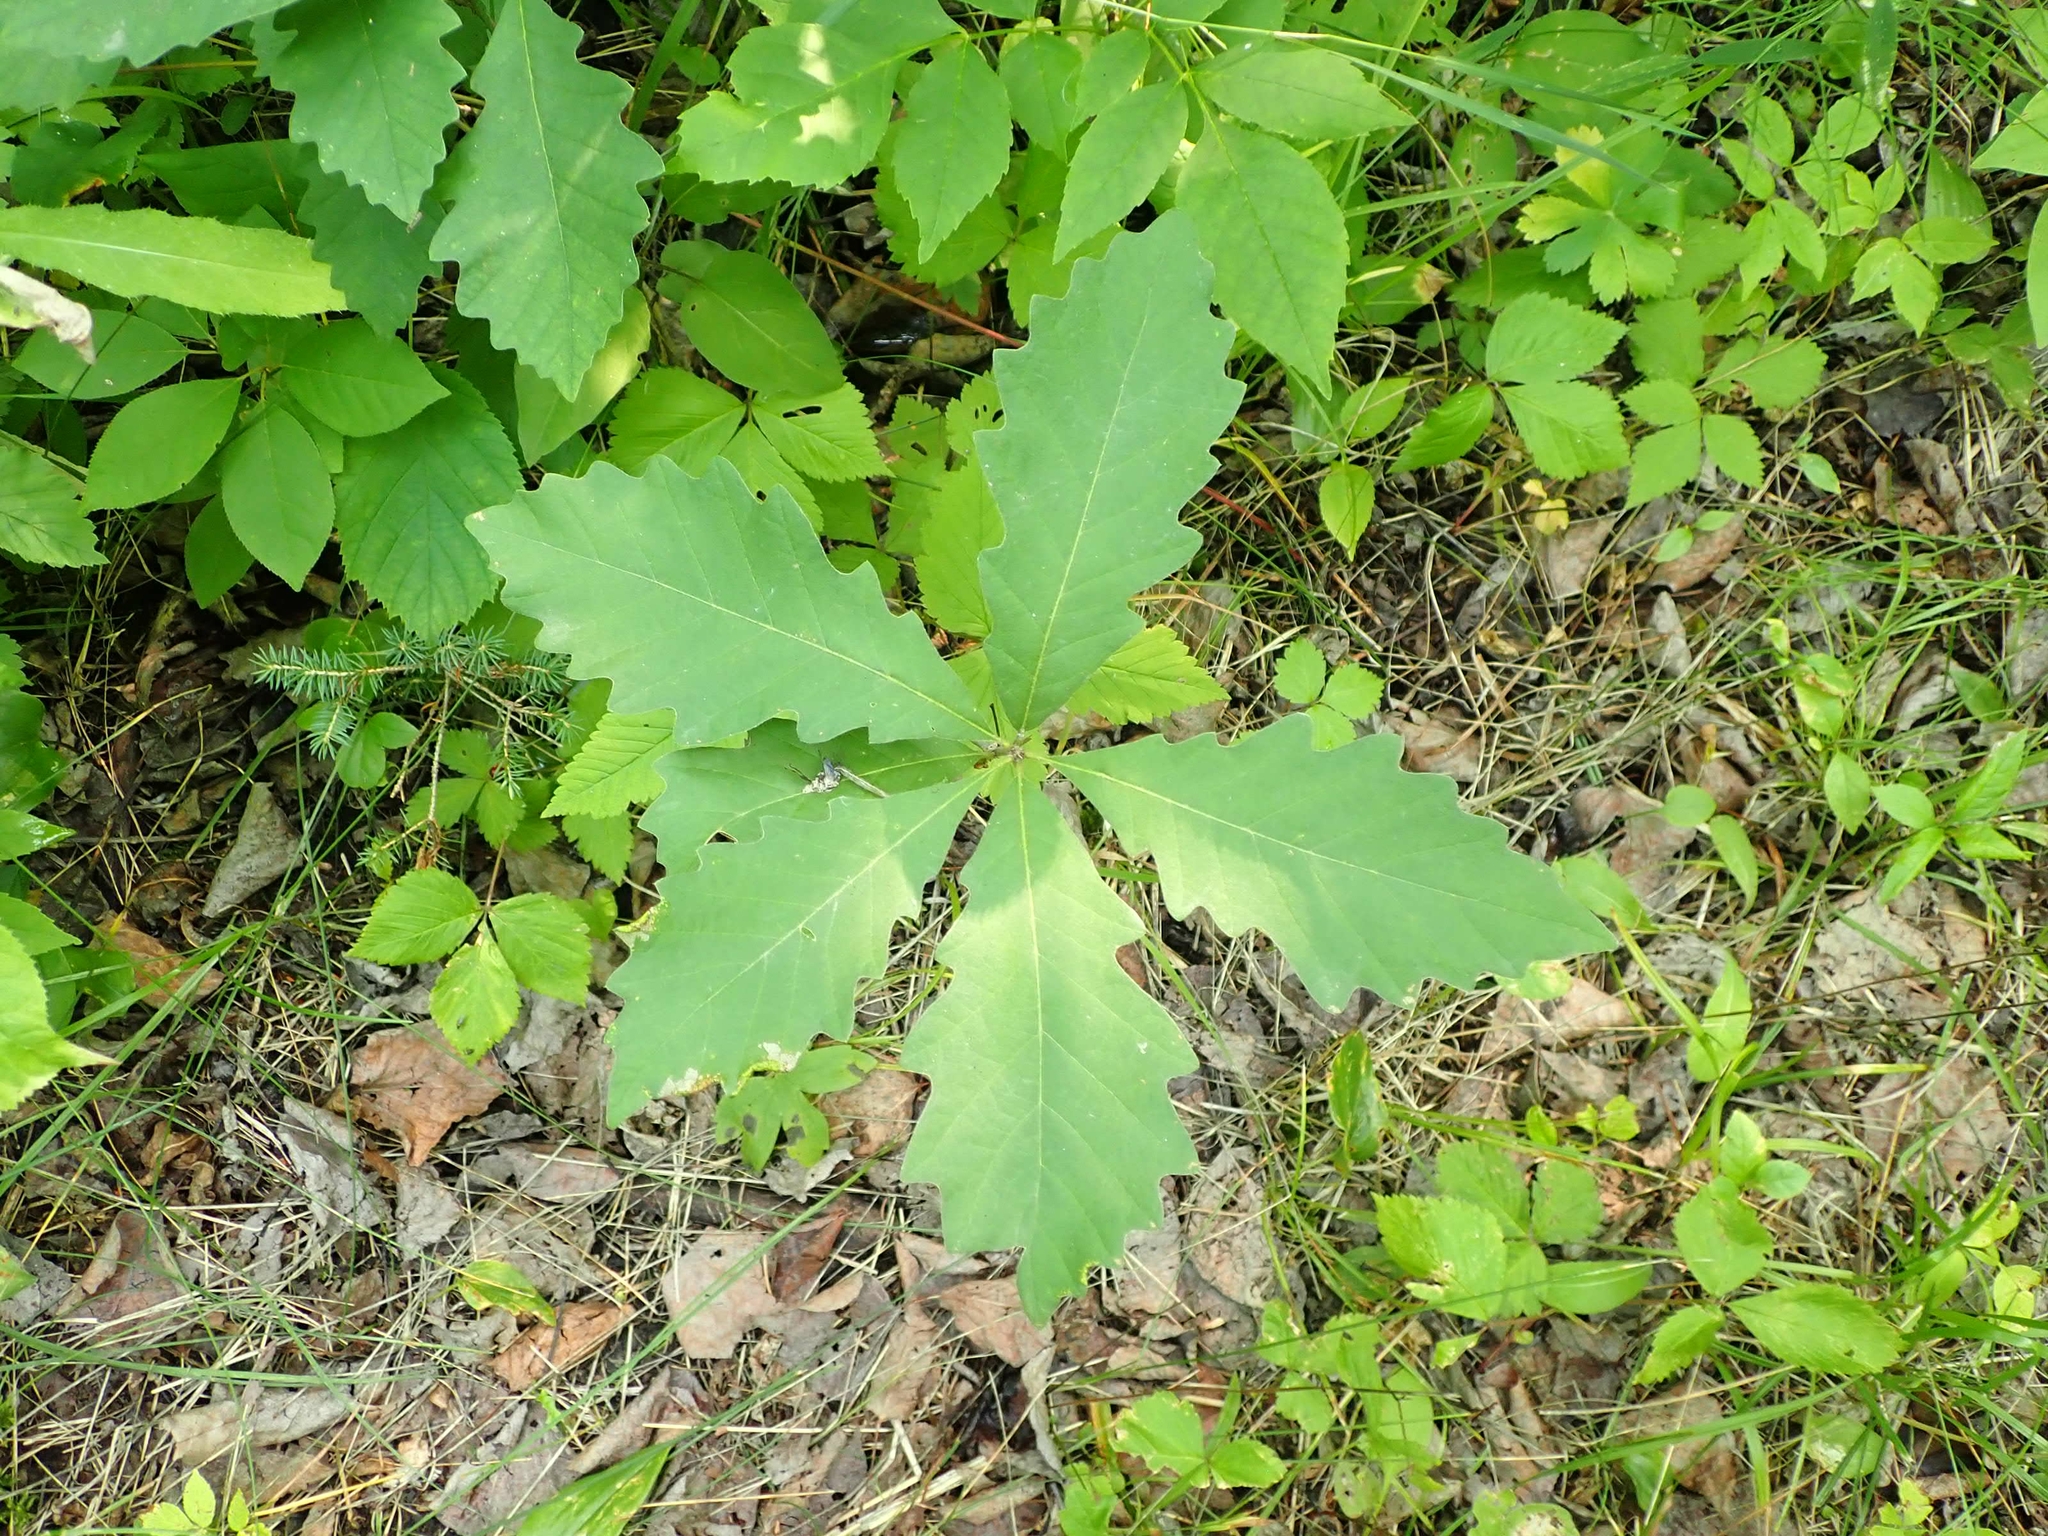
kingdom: Plantae
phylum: Tracheophyta
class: Magnoliopsida
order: Fagales
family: Fagaceae
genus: Quercus
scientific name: Quercus macrocarpa
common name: Bur oak
